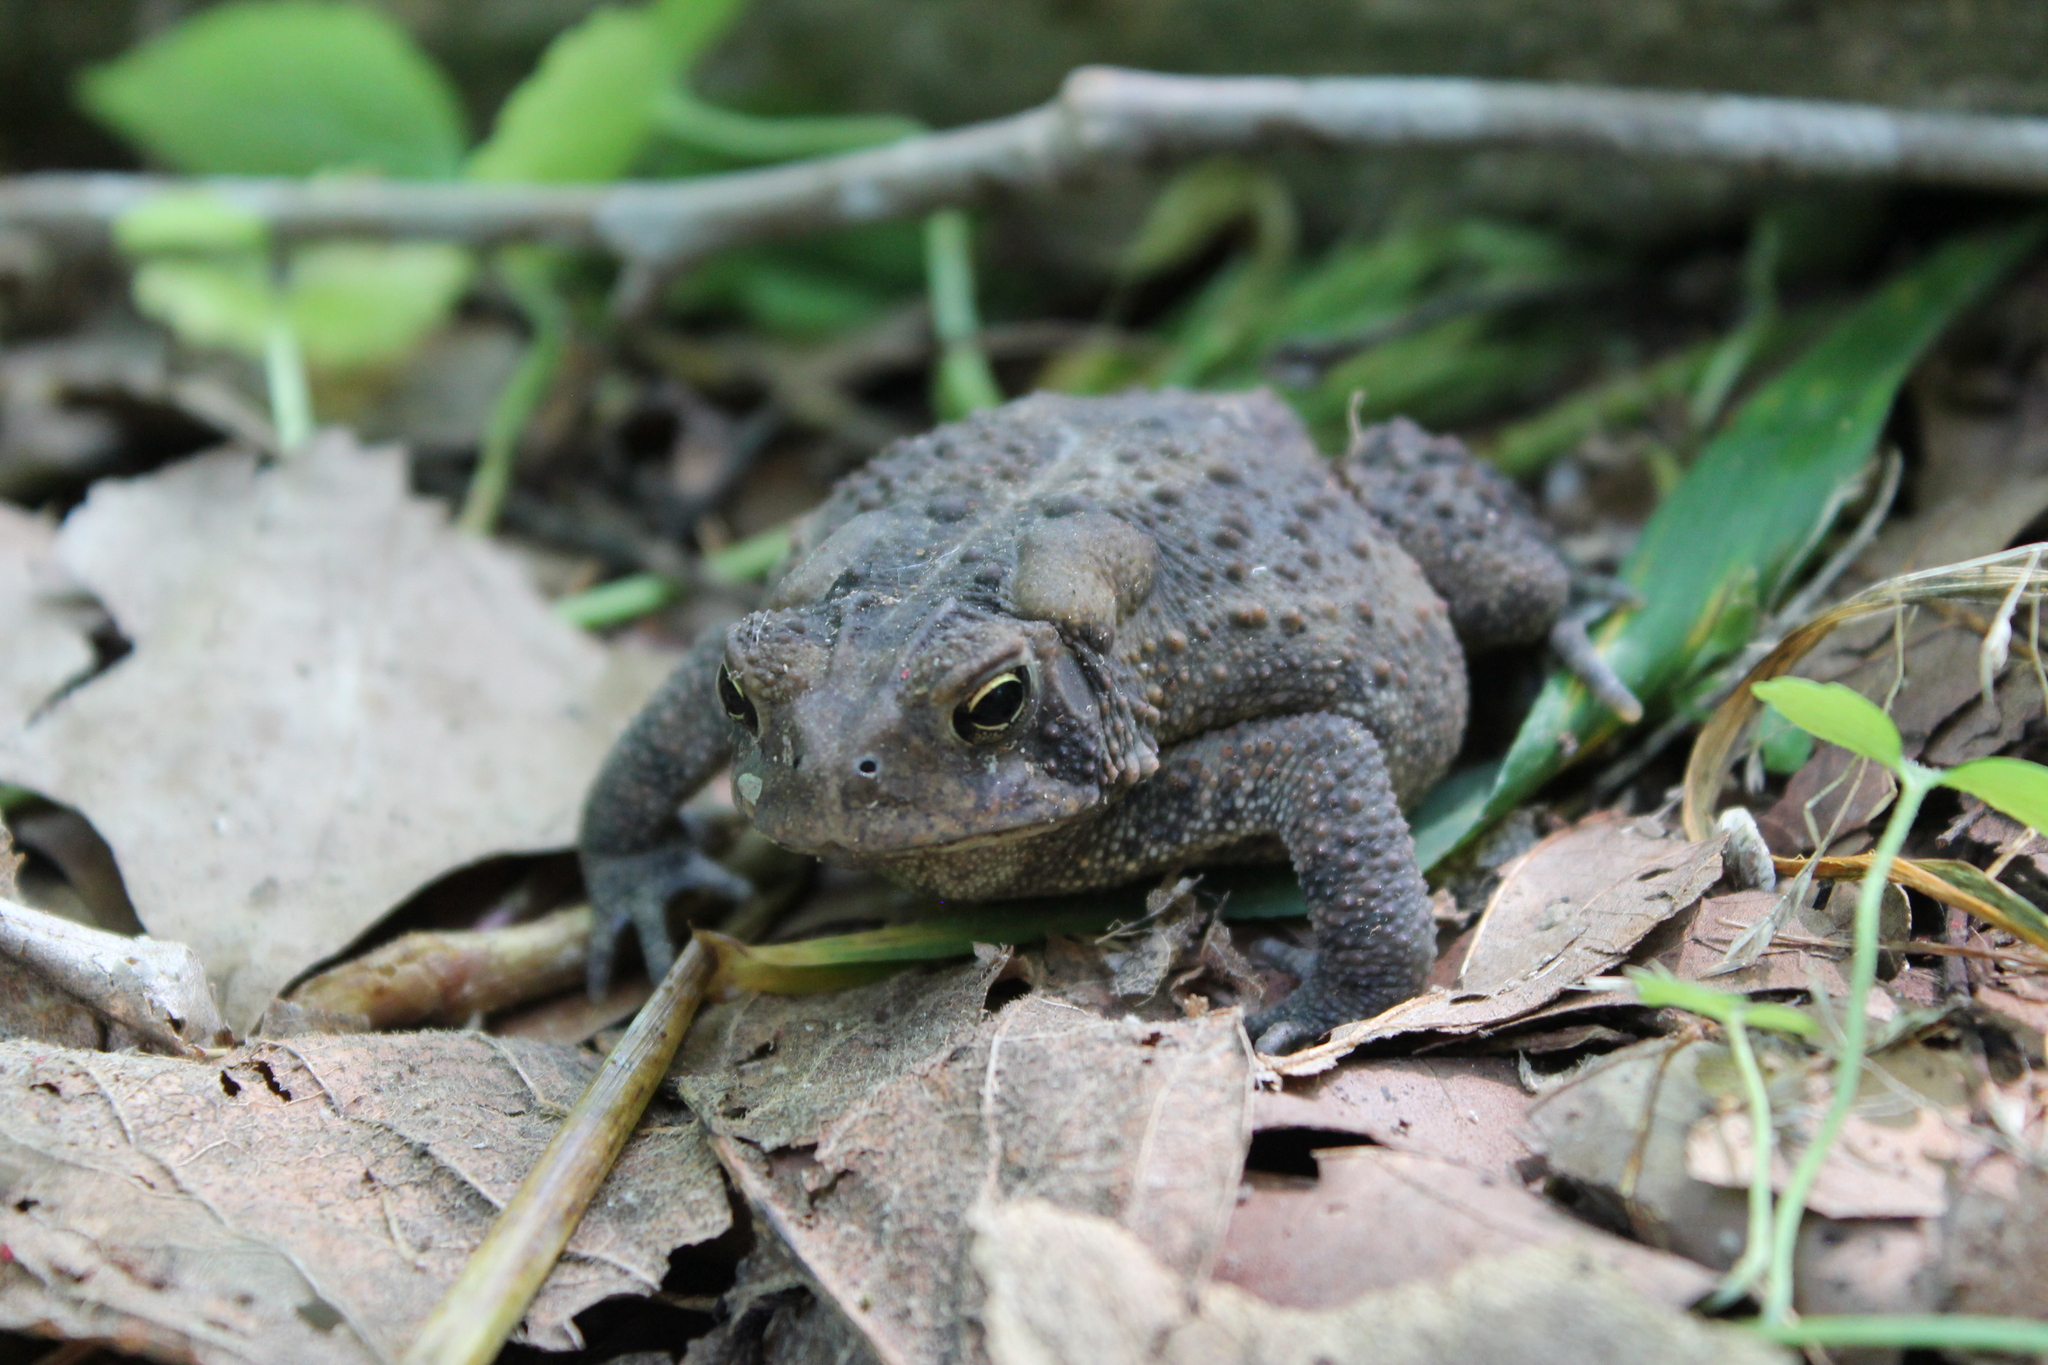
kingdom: Animalia
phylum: Chordata
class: Amphibia
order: Anura
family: Bufonidae
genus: Anaxyrus
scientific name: Anaxyrus americanus
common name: American toad
